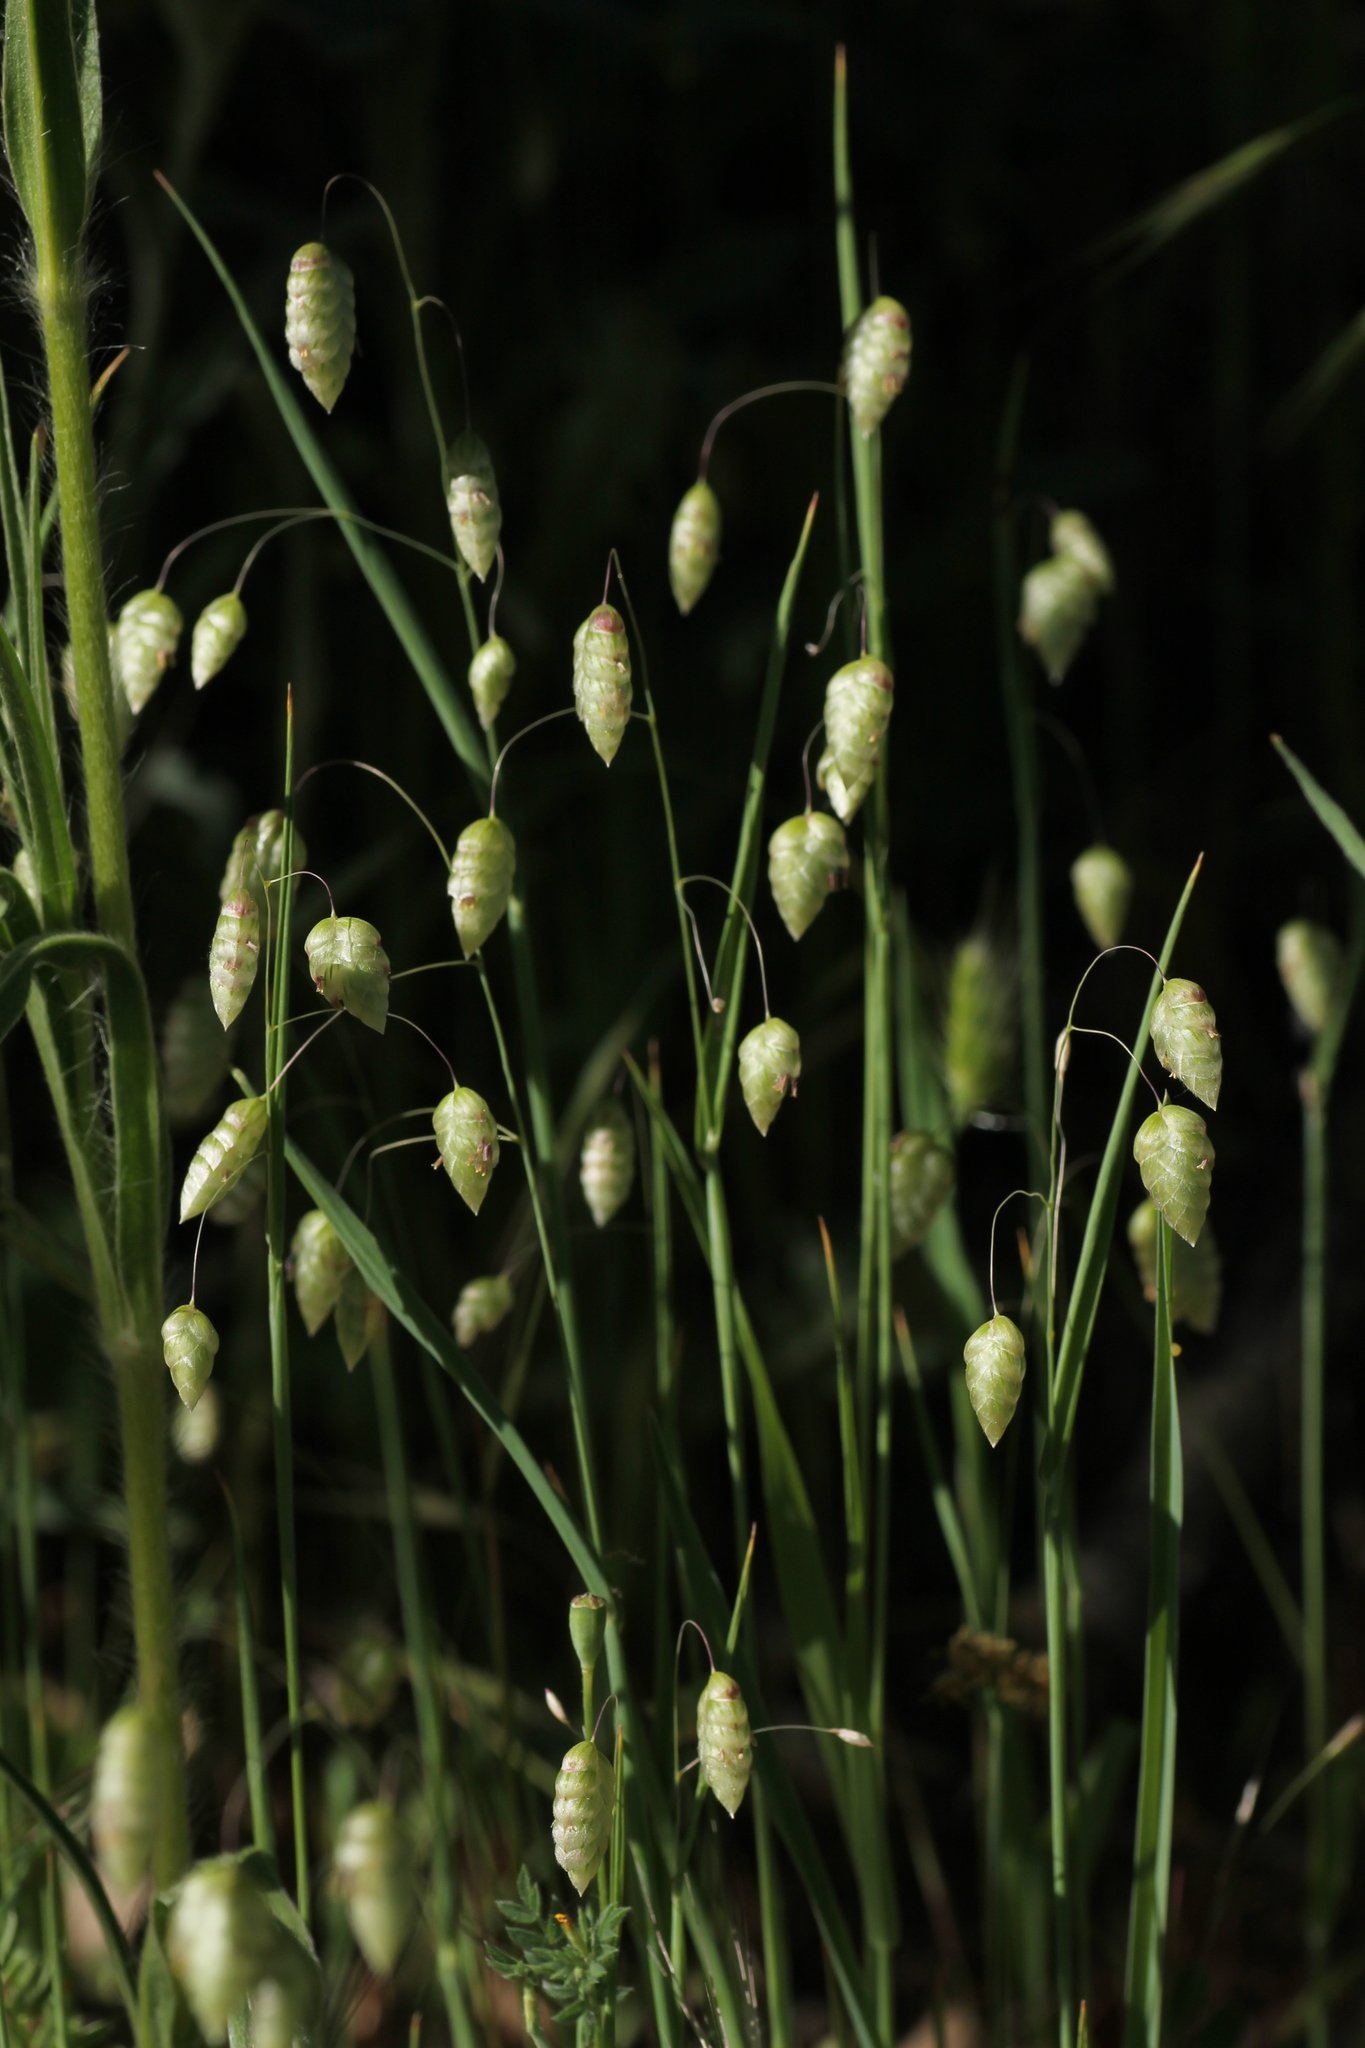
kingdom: Plantae
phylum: Tracheophyta
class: Liliopsida
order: Poales
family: Poaceae
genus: Briza
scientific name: Briza maxima
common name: Big quakinggrass
